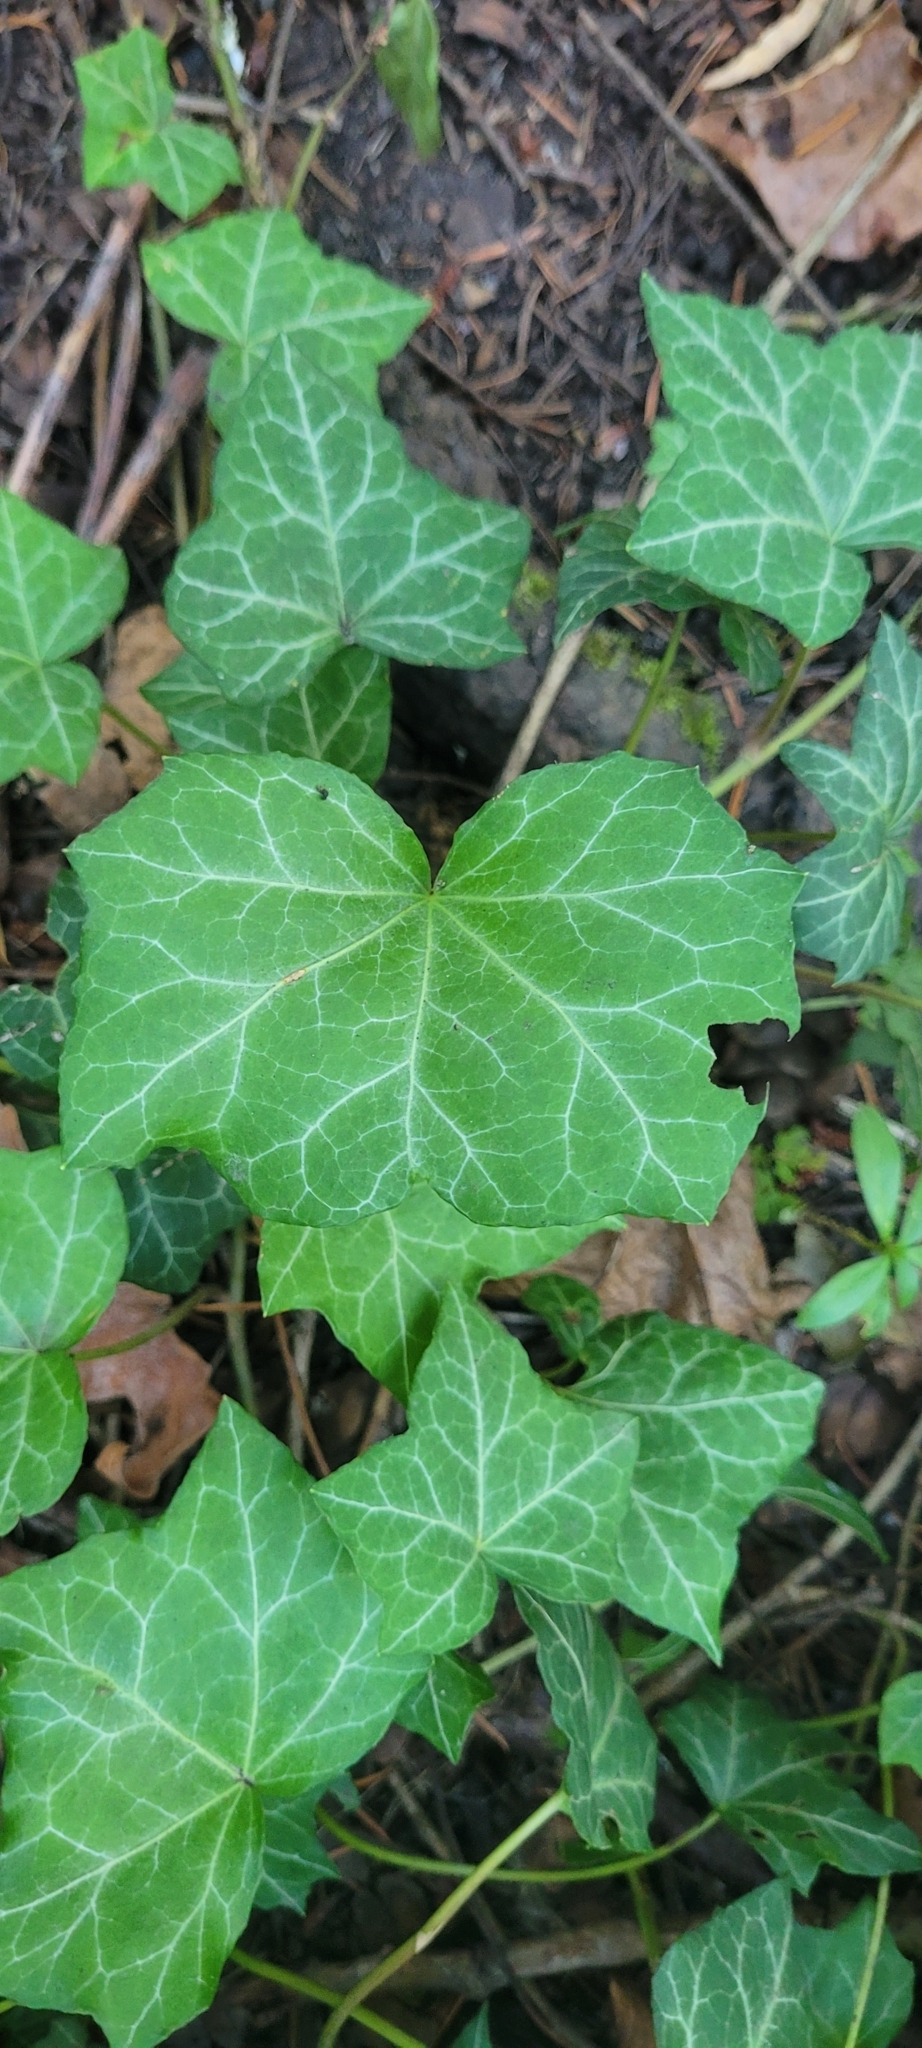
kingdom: Plantae
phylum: Tracheophyta
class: Magnoliopsida
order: Apiales
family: Araliaceae
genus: Hedera
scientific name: Hedera helix
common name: Ivy
